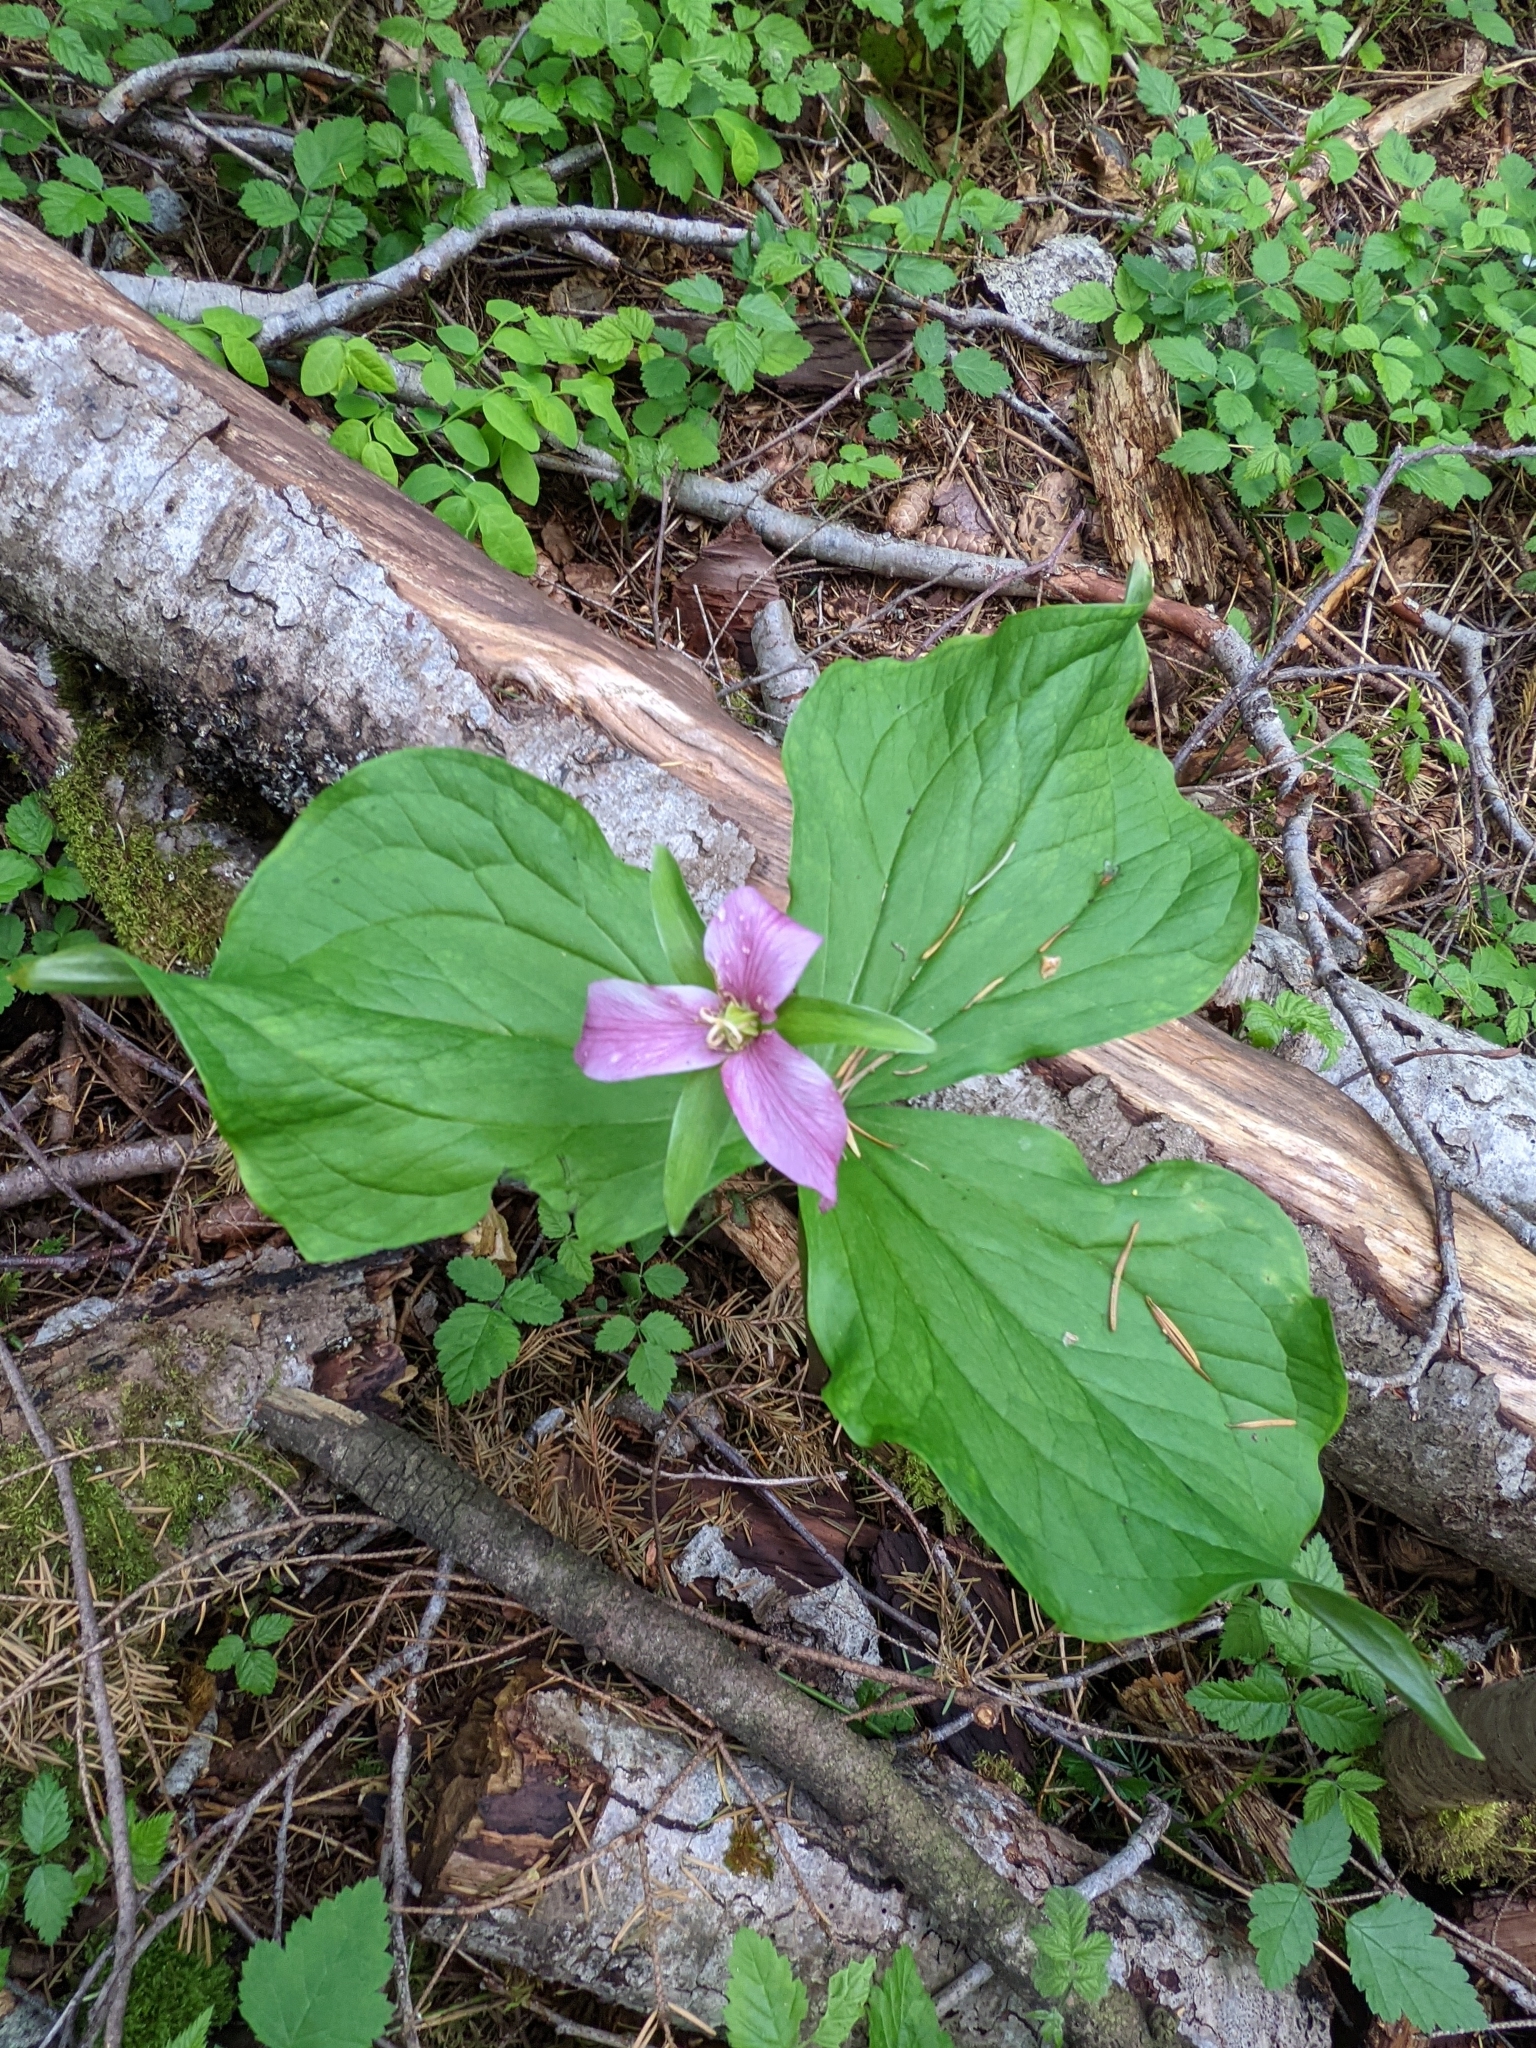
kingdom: Plantae
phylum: Tracheophyta
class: Liliopsida
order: Liliales
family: Melanthiaceae
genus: Trillium
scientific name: Trillium ovatum
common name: Pacific trillium
